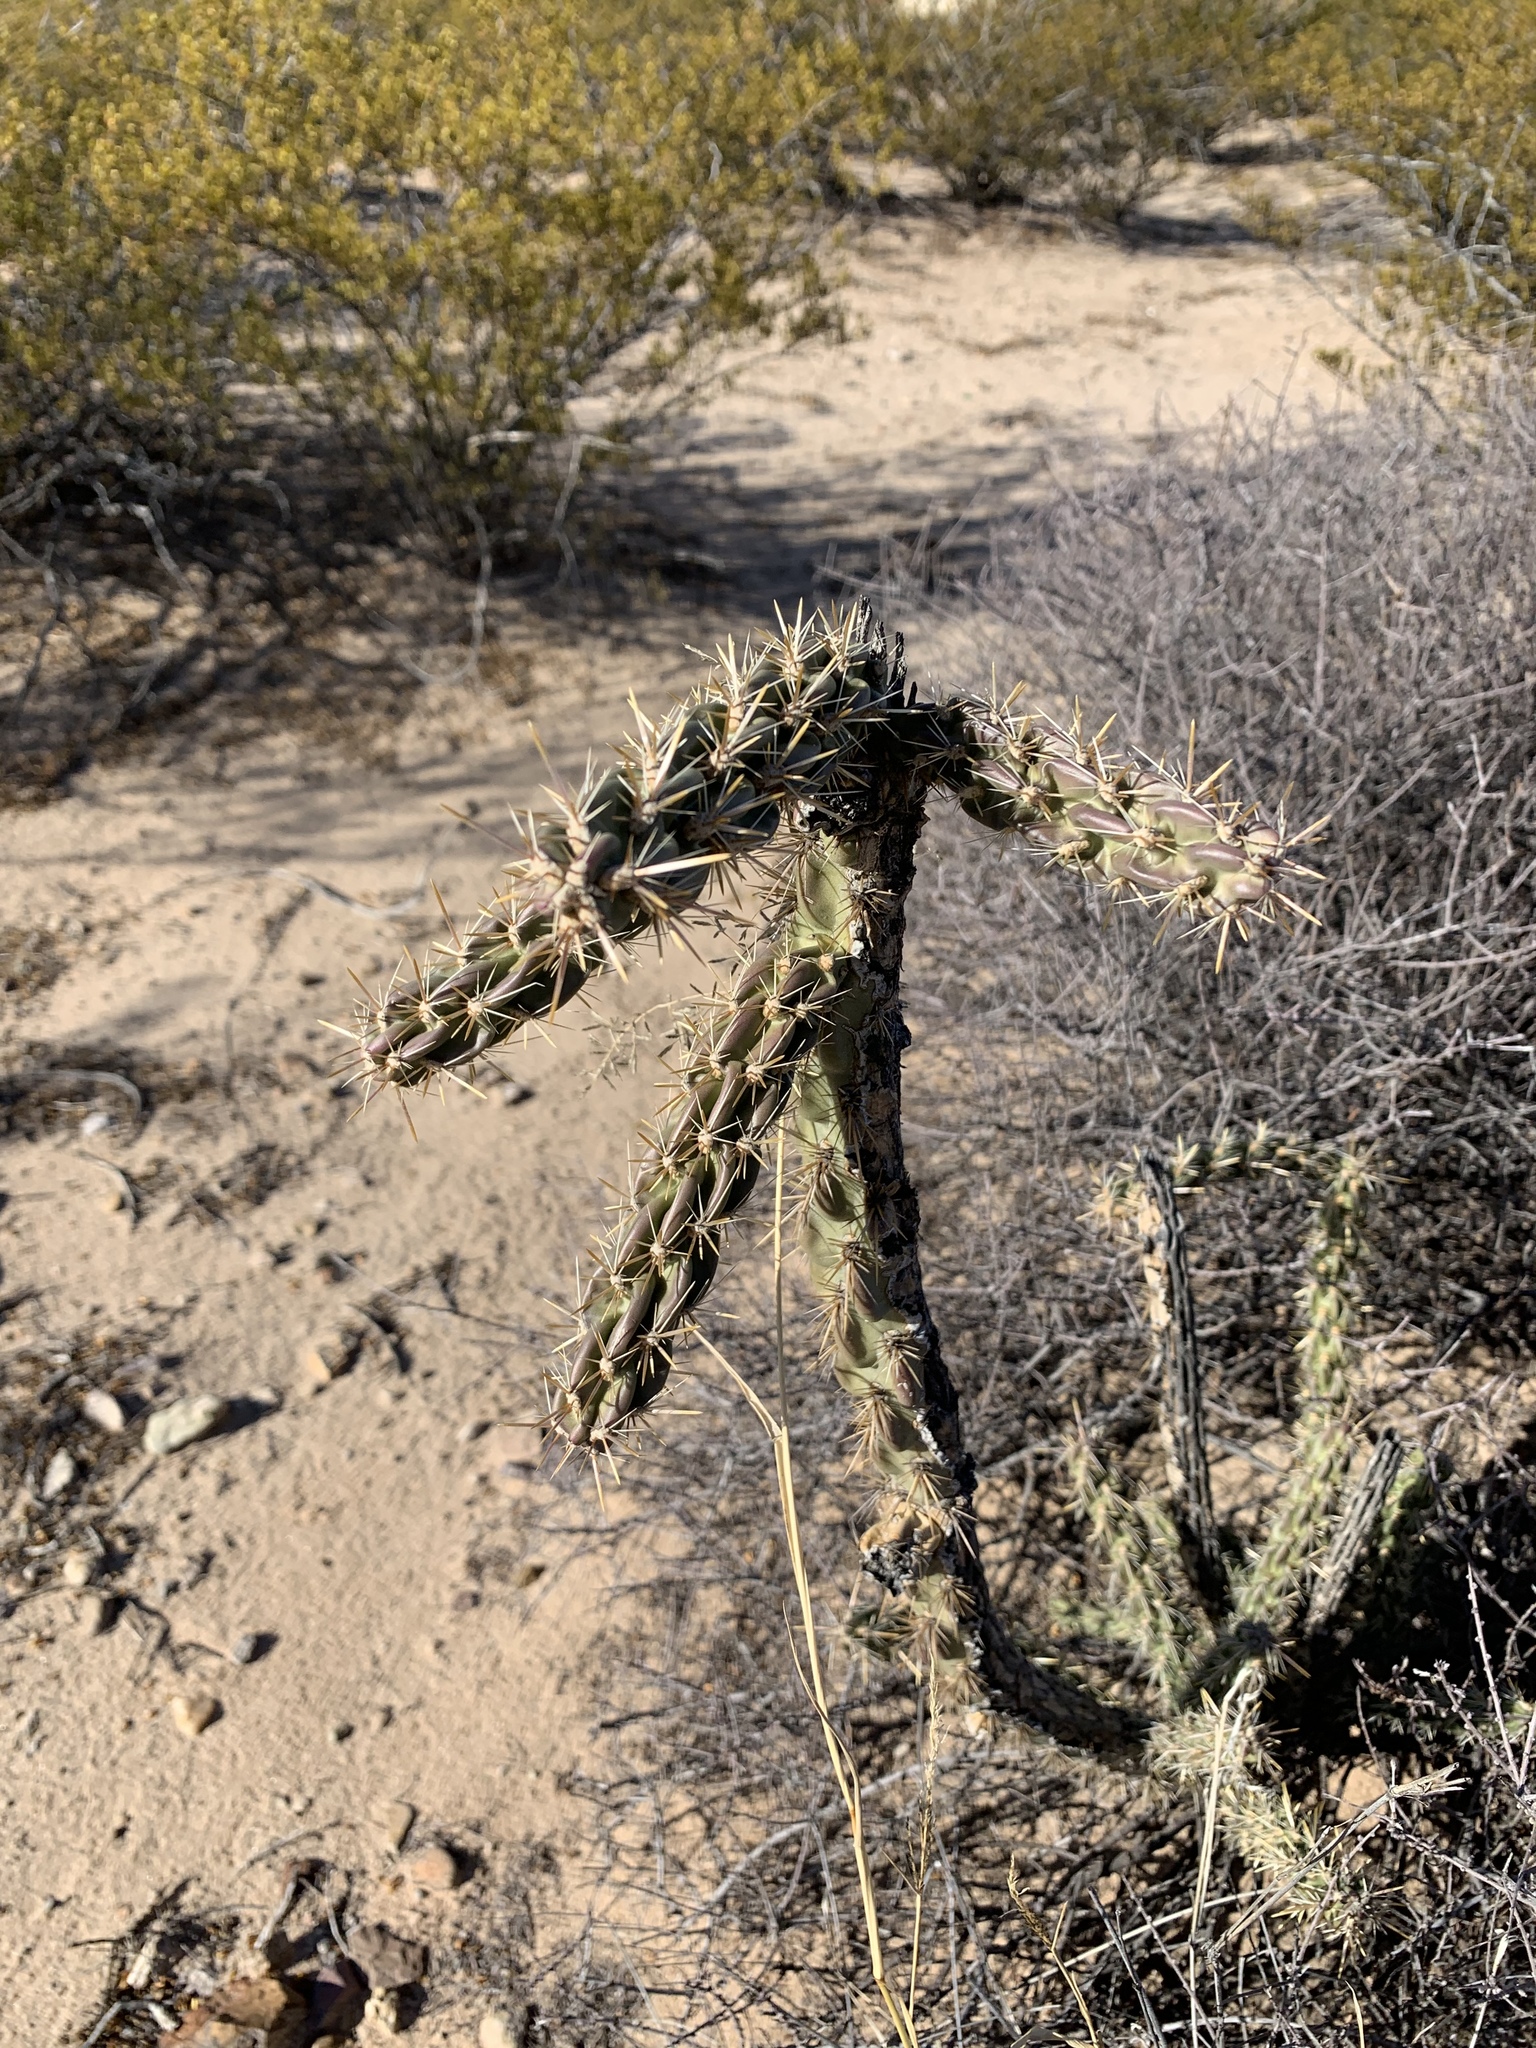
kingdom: Plantae
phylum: Tracheophyta
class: Magnoliopsida
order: Caryophyllales
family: Cactaceae
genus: Cylindropuntia
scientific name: Cylindropuntia imbricata
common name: Candelabrum cactus
